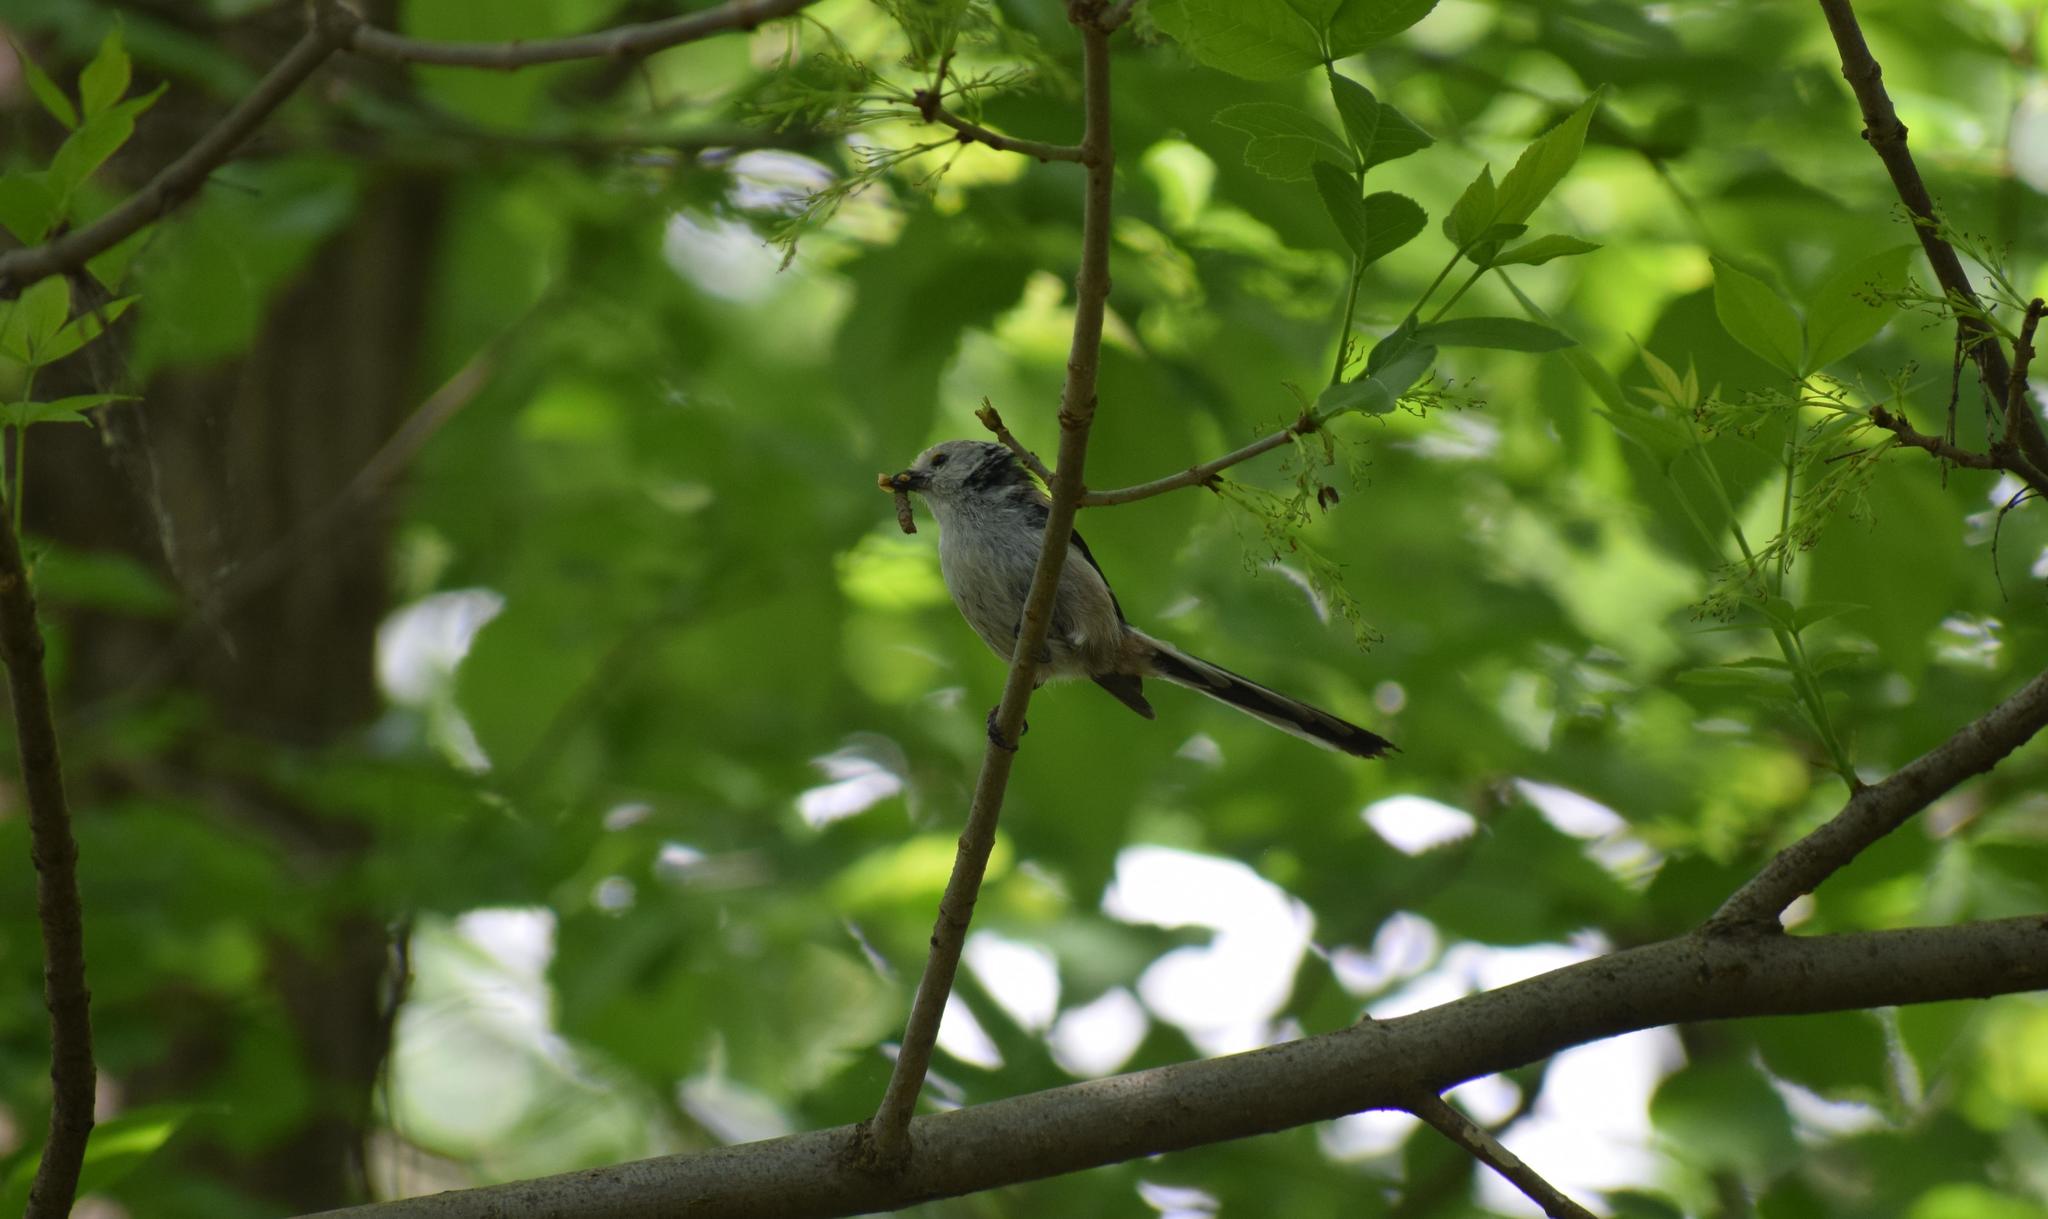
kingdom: Animalia
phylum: Chordata
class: Aves
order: Passeriformes
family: Aegithalidae
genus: Aegithalos
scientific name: Aegithalos caudatus
